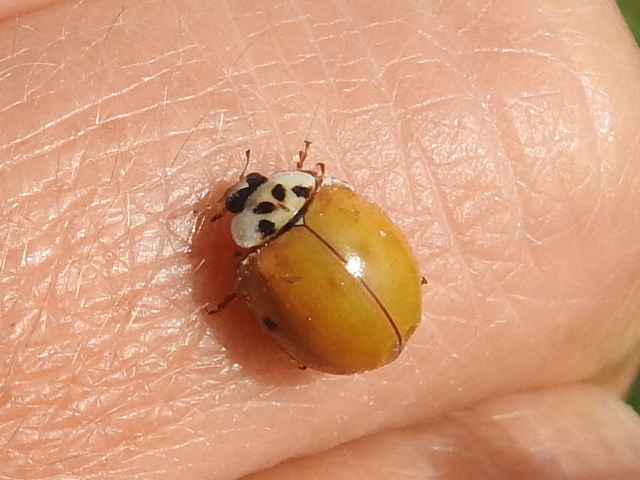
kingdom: Animalia
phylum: Arthropoda
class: Insecta
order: Coleoptera
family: Coccinellidae
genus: Harmonia
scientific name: Harmonia axyridis
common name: Harlequin ladybird
